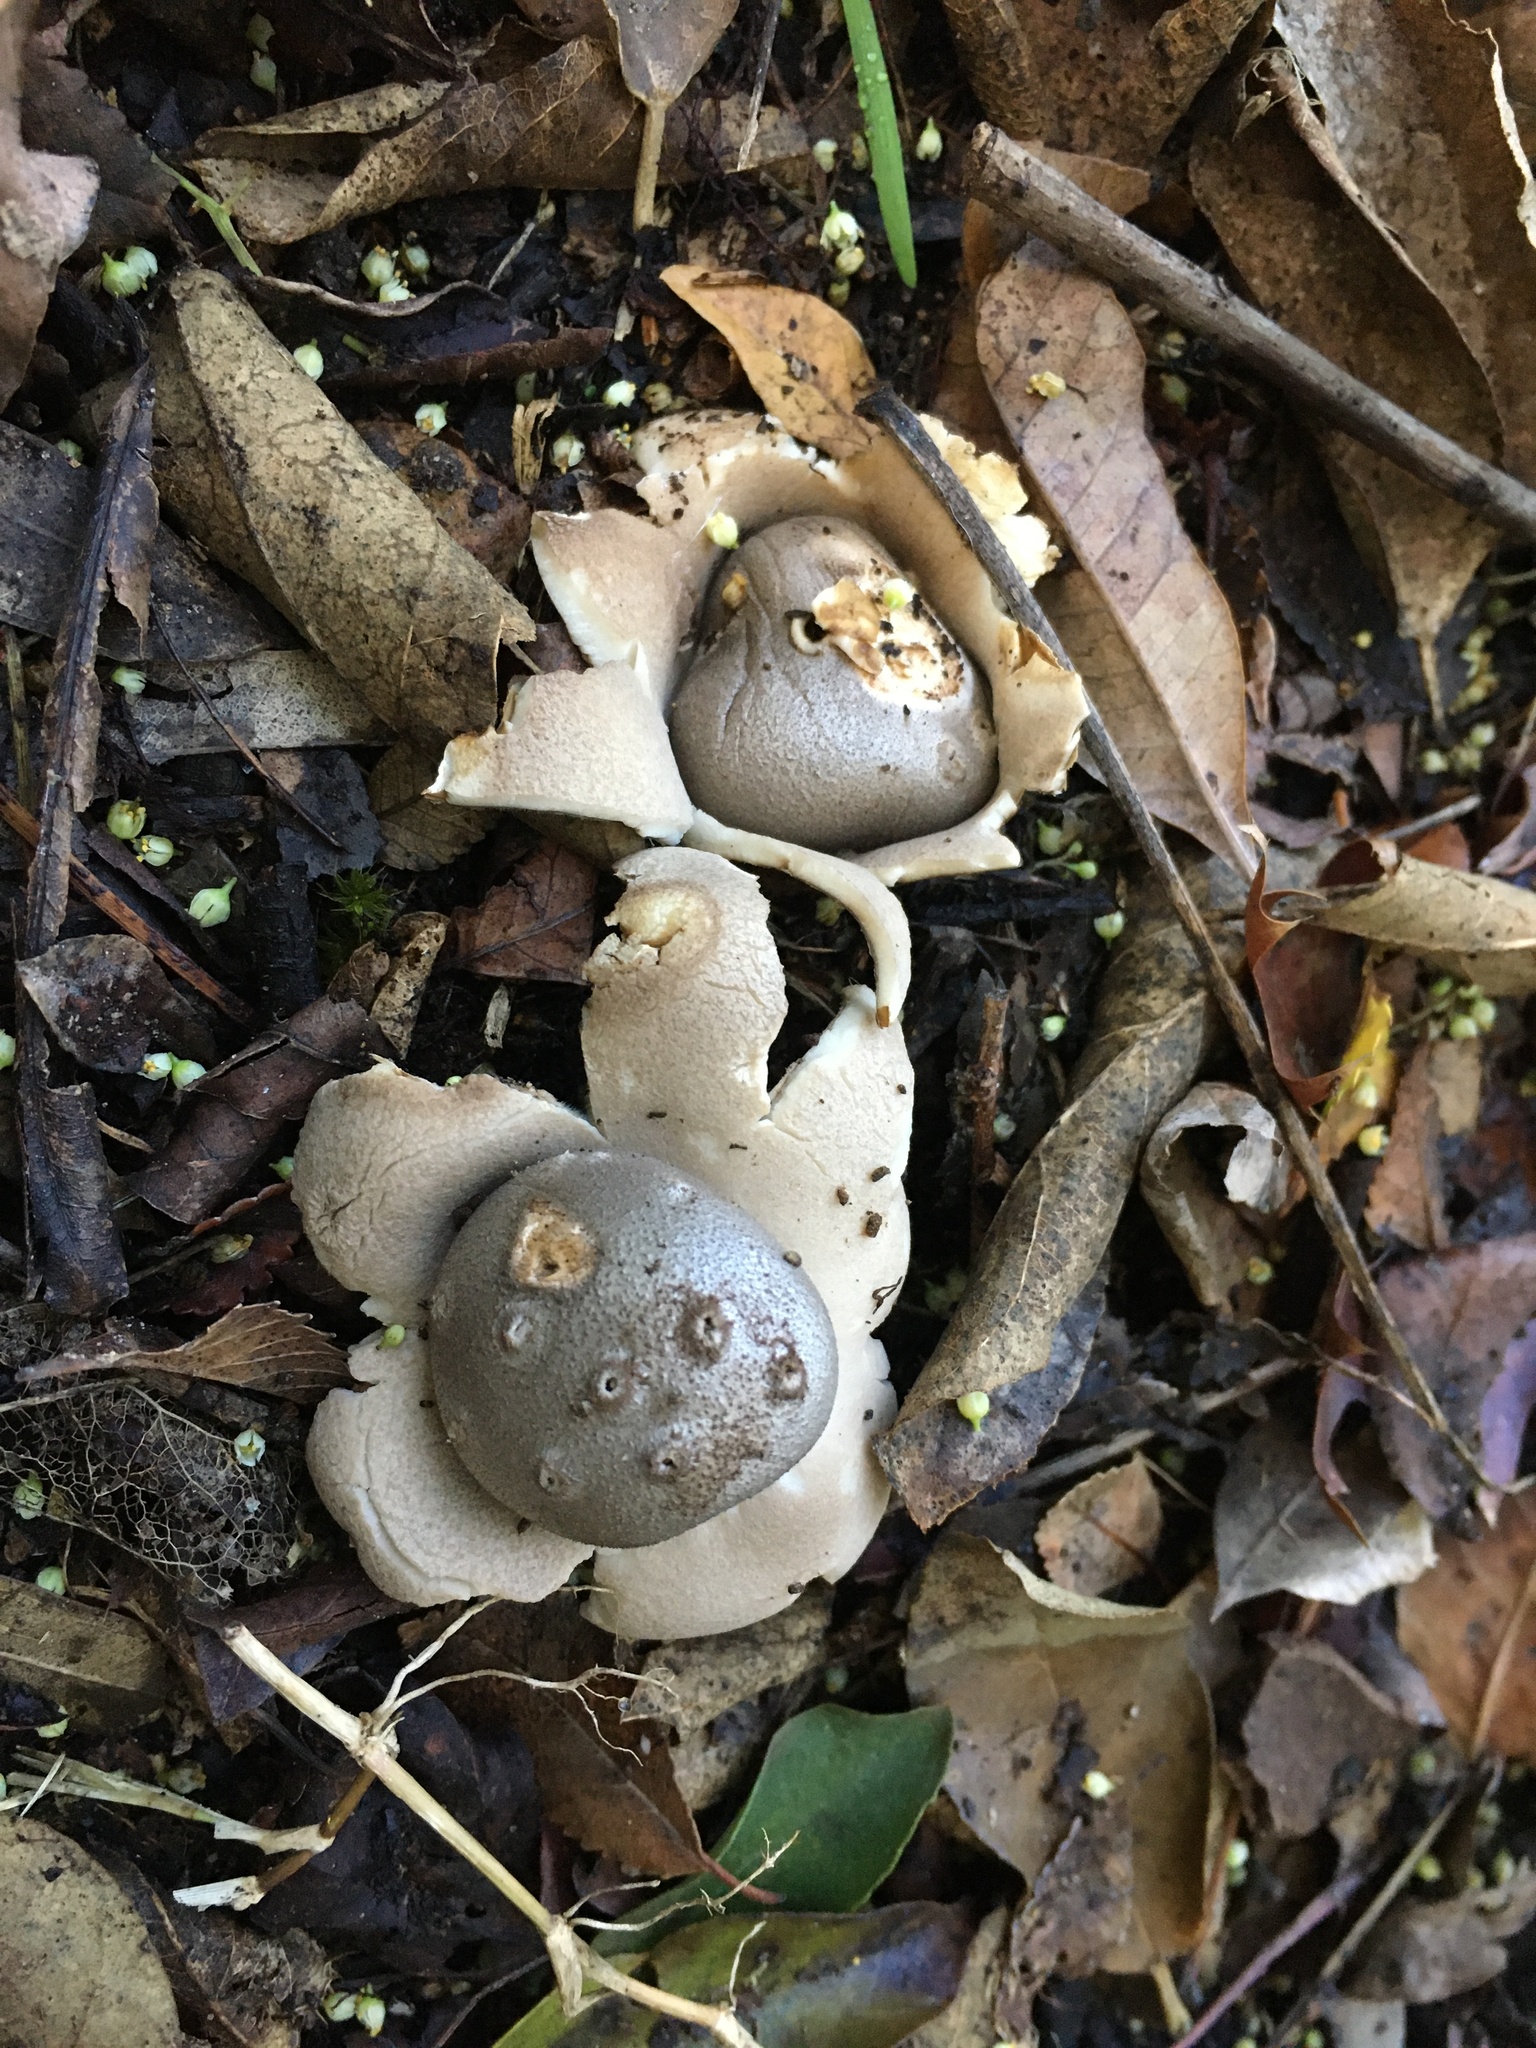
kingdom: Fungi
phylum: Basidiomycota
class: Agaricomycetes
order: Geastrales
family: Geastraceae
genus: Myriostoma
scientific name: Myriostoma capillisporum
